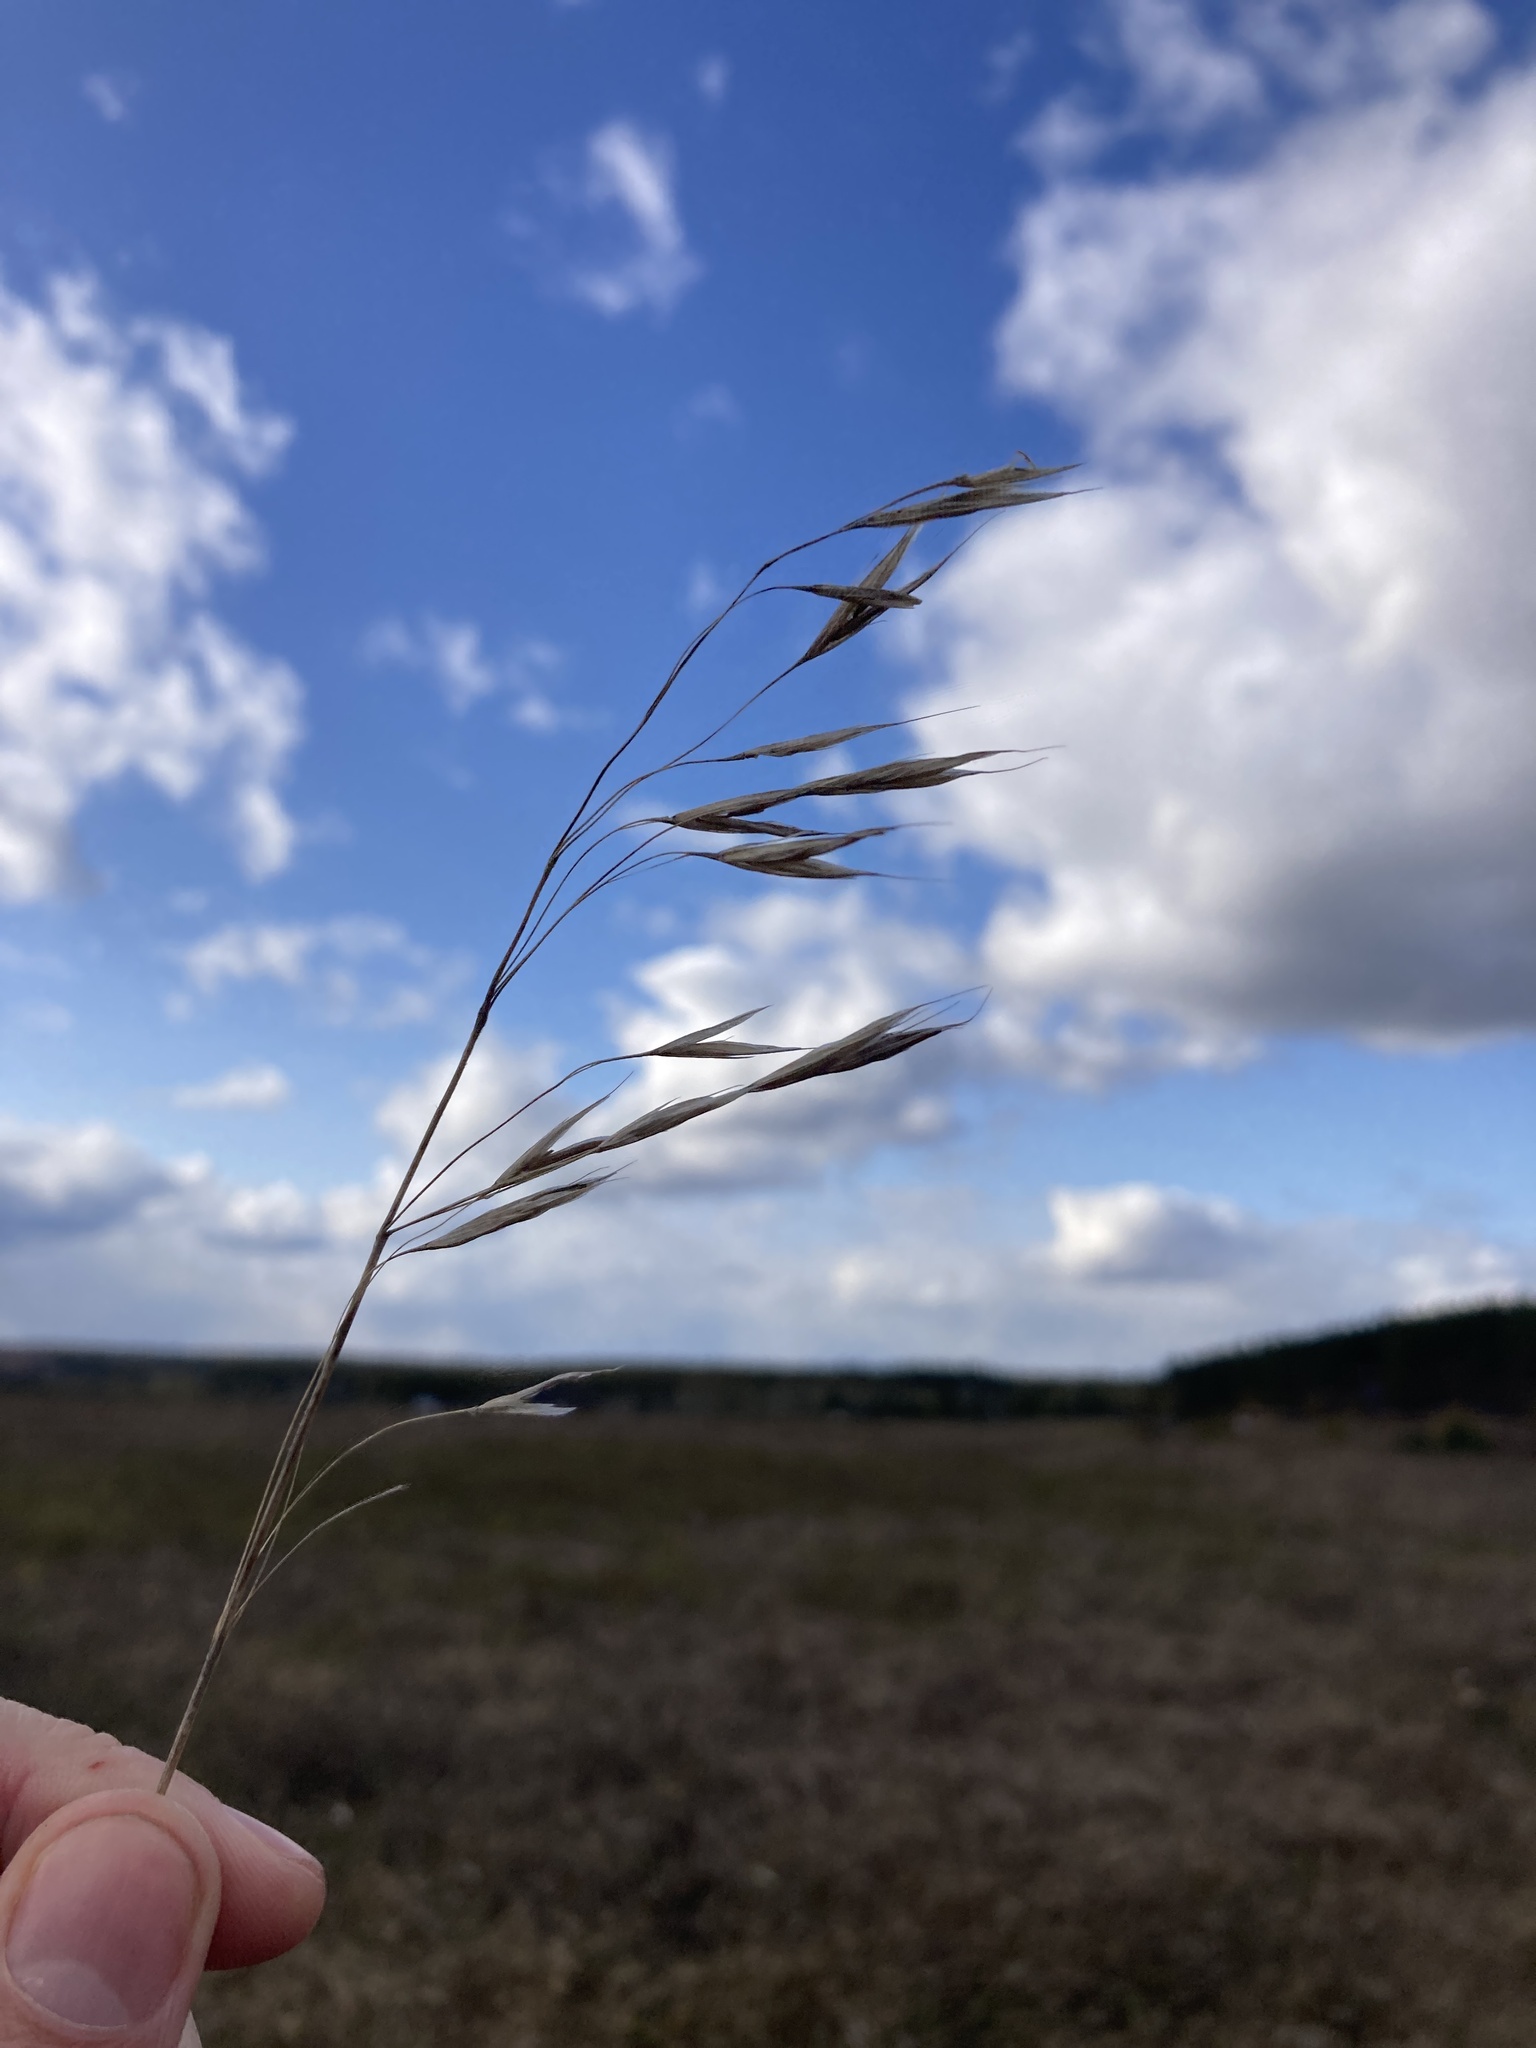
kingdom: Plantae
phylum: Tracheophyta
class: Liliopsida
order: Poales
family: Poaceae
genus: Bromus
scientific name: Bromus riparius
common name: Meadow brome
